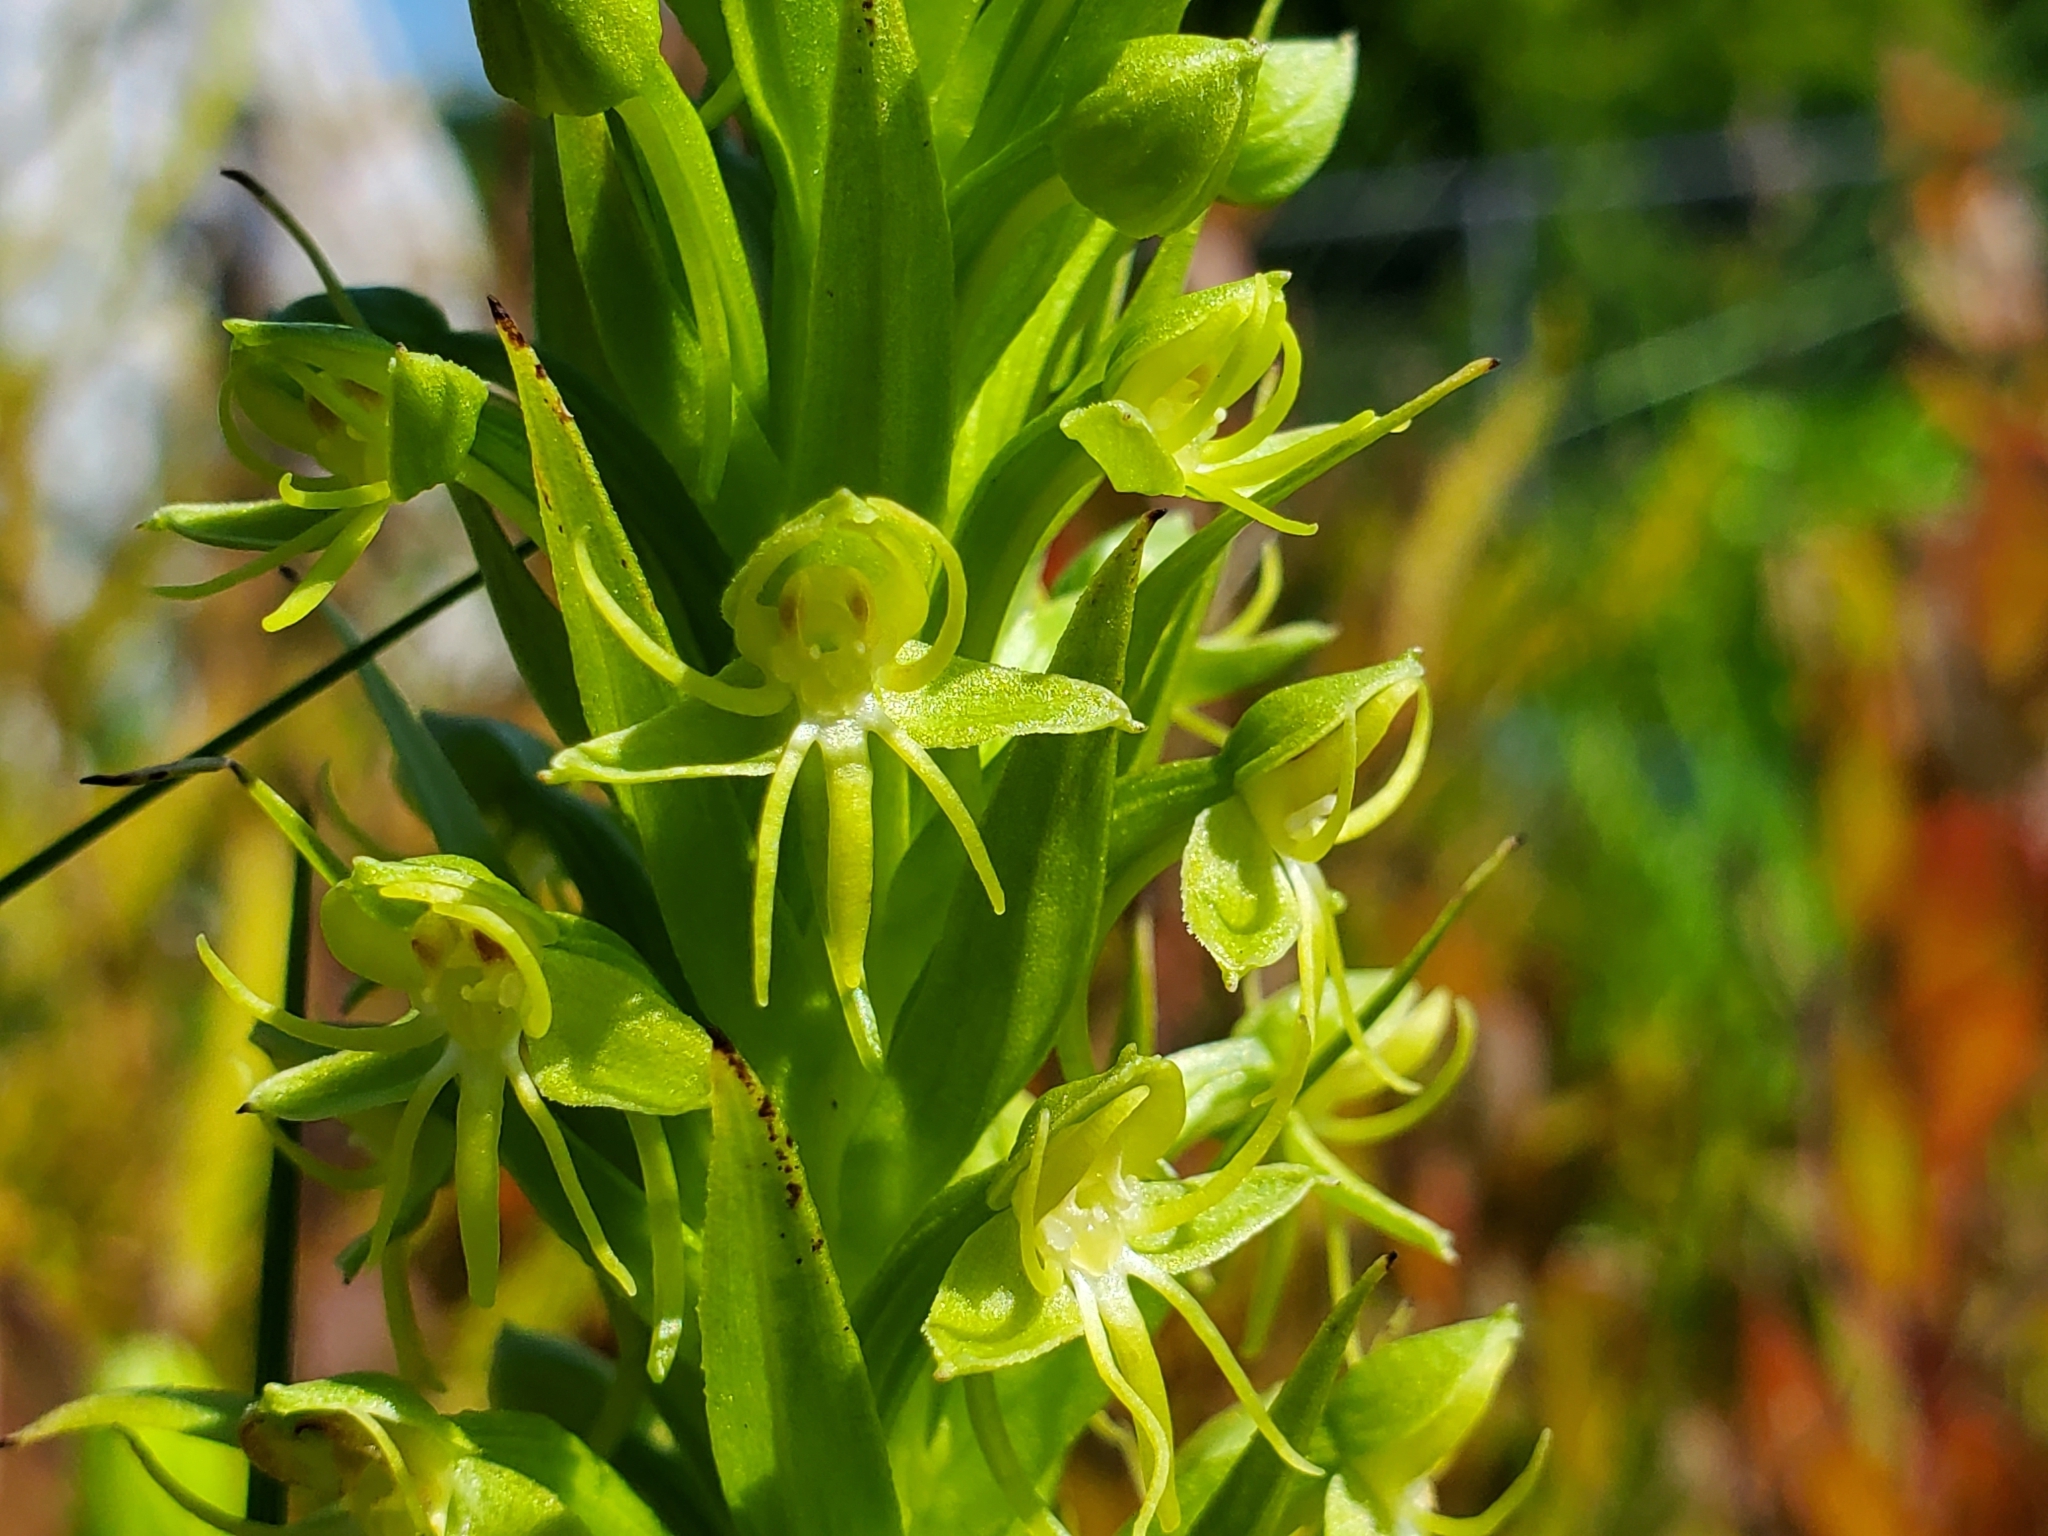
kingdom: Plantae
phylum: Tracheophyta
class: Liliopsida
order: Asparagales
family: Orchidaceae
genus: Habenaria
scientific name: Habenaria repens
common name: Water orchid
